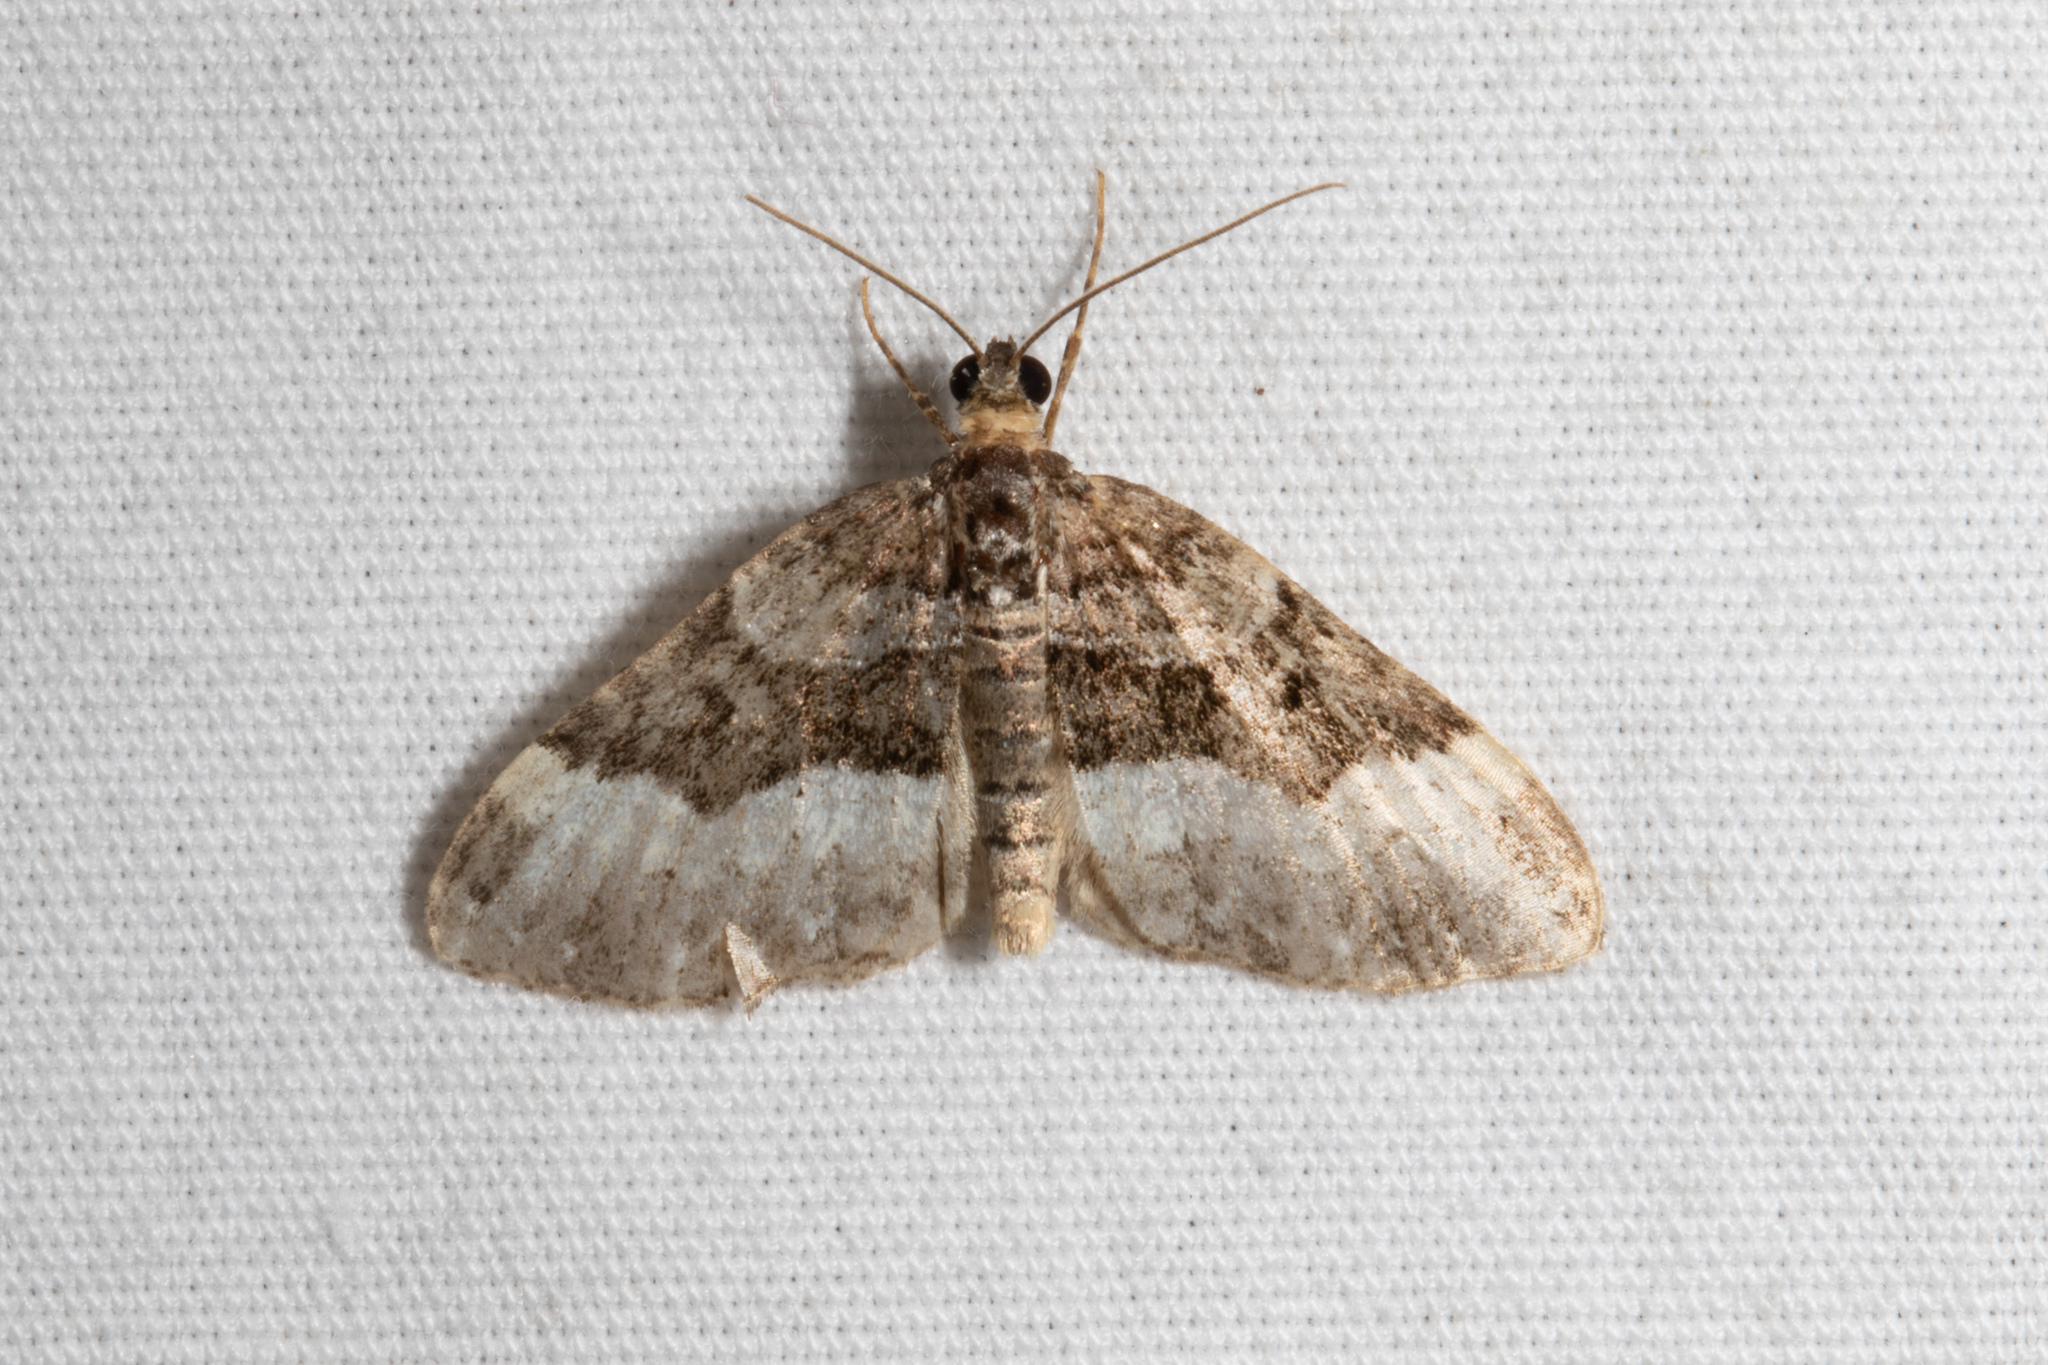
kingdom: Animalia
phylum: Arthropoda
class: Insecta
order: Lepidoptera
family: Geometridae
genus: Euphyia
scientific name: Euphyia intermediata
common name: Sharp-angled carpet
